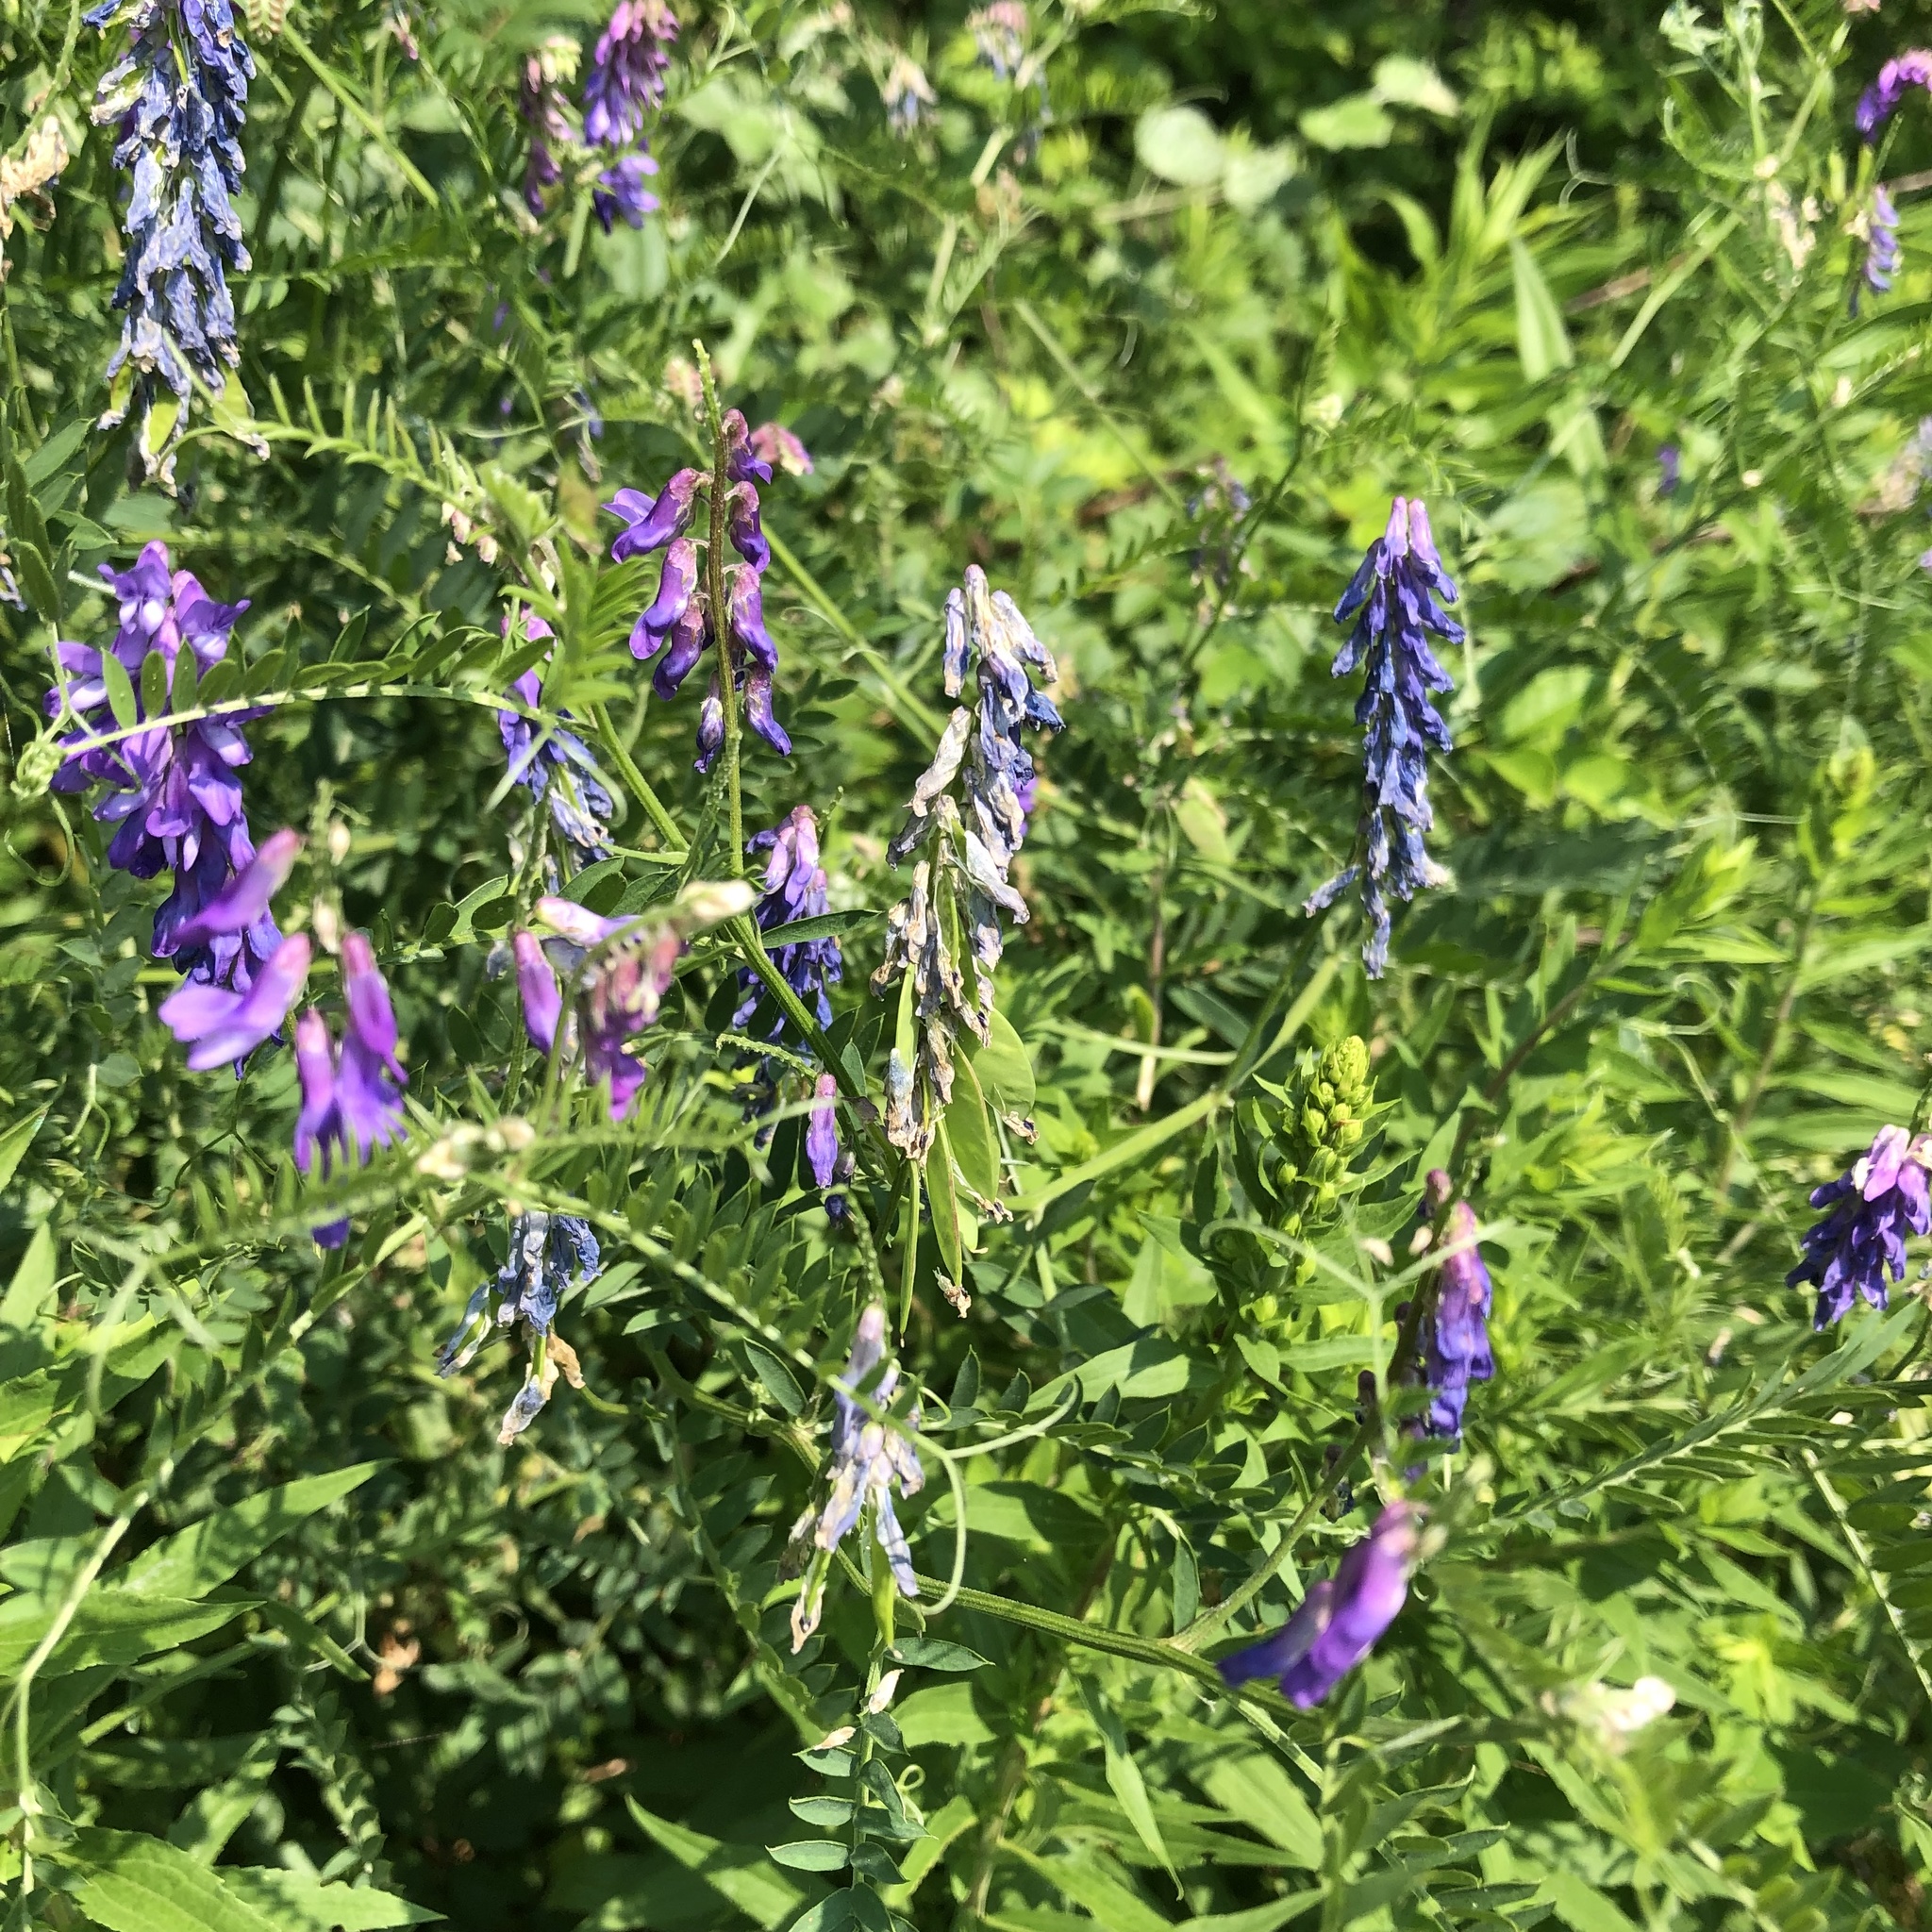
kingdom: Plantae
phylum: Tracheophyta
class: Magnoliopsida
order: Fabales
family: Fabaceae
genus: Vicia
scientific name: Vicia cracca
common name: Bird vetch
